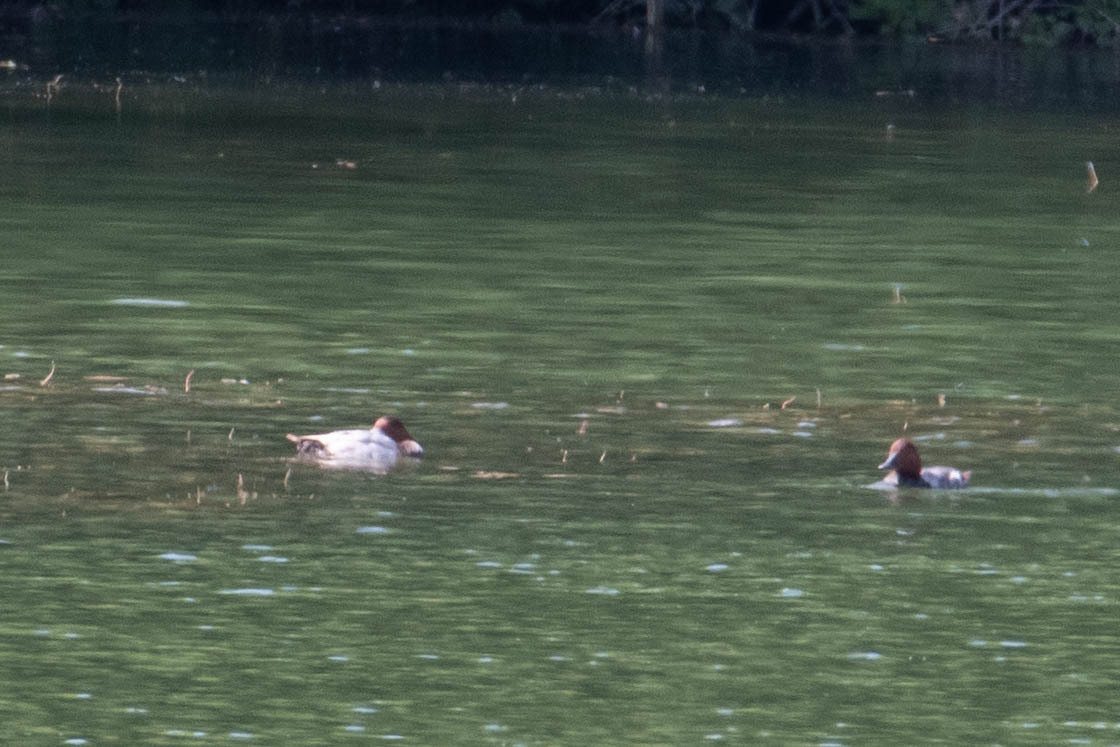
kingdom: Animalia
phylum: Chordata
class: Aves
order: Anseriformes
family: Anatidae
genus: Aythya
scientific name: Aythya ferina
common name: Common pochard
